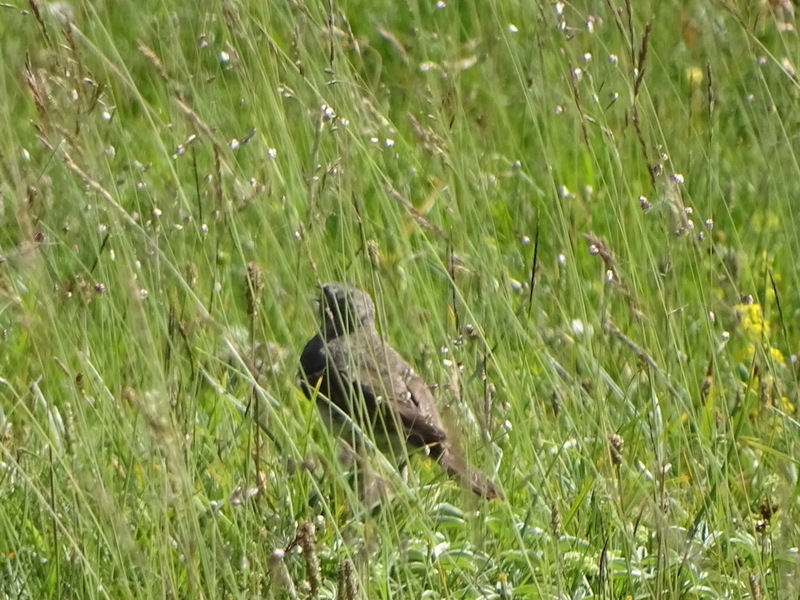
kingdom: Animalia
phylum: Chordata
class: Aves
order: Passeriformes
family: Motacillidae
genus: Anthus
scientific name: Anthus spinoletta
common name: Water pipit
